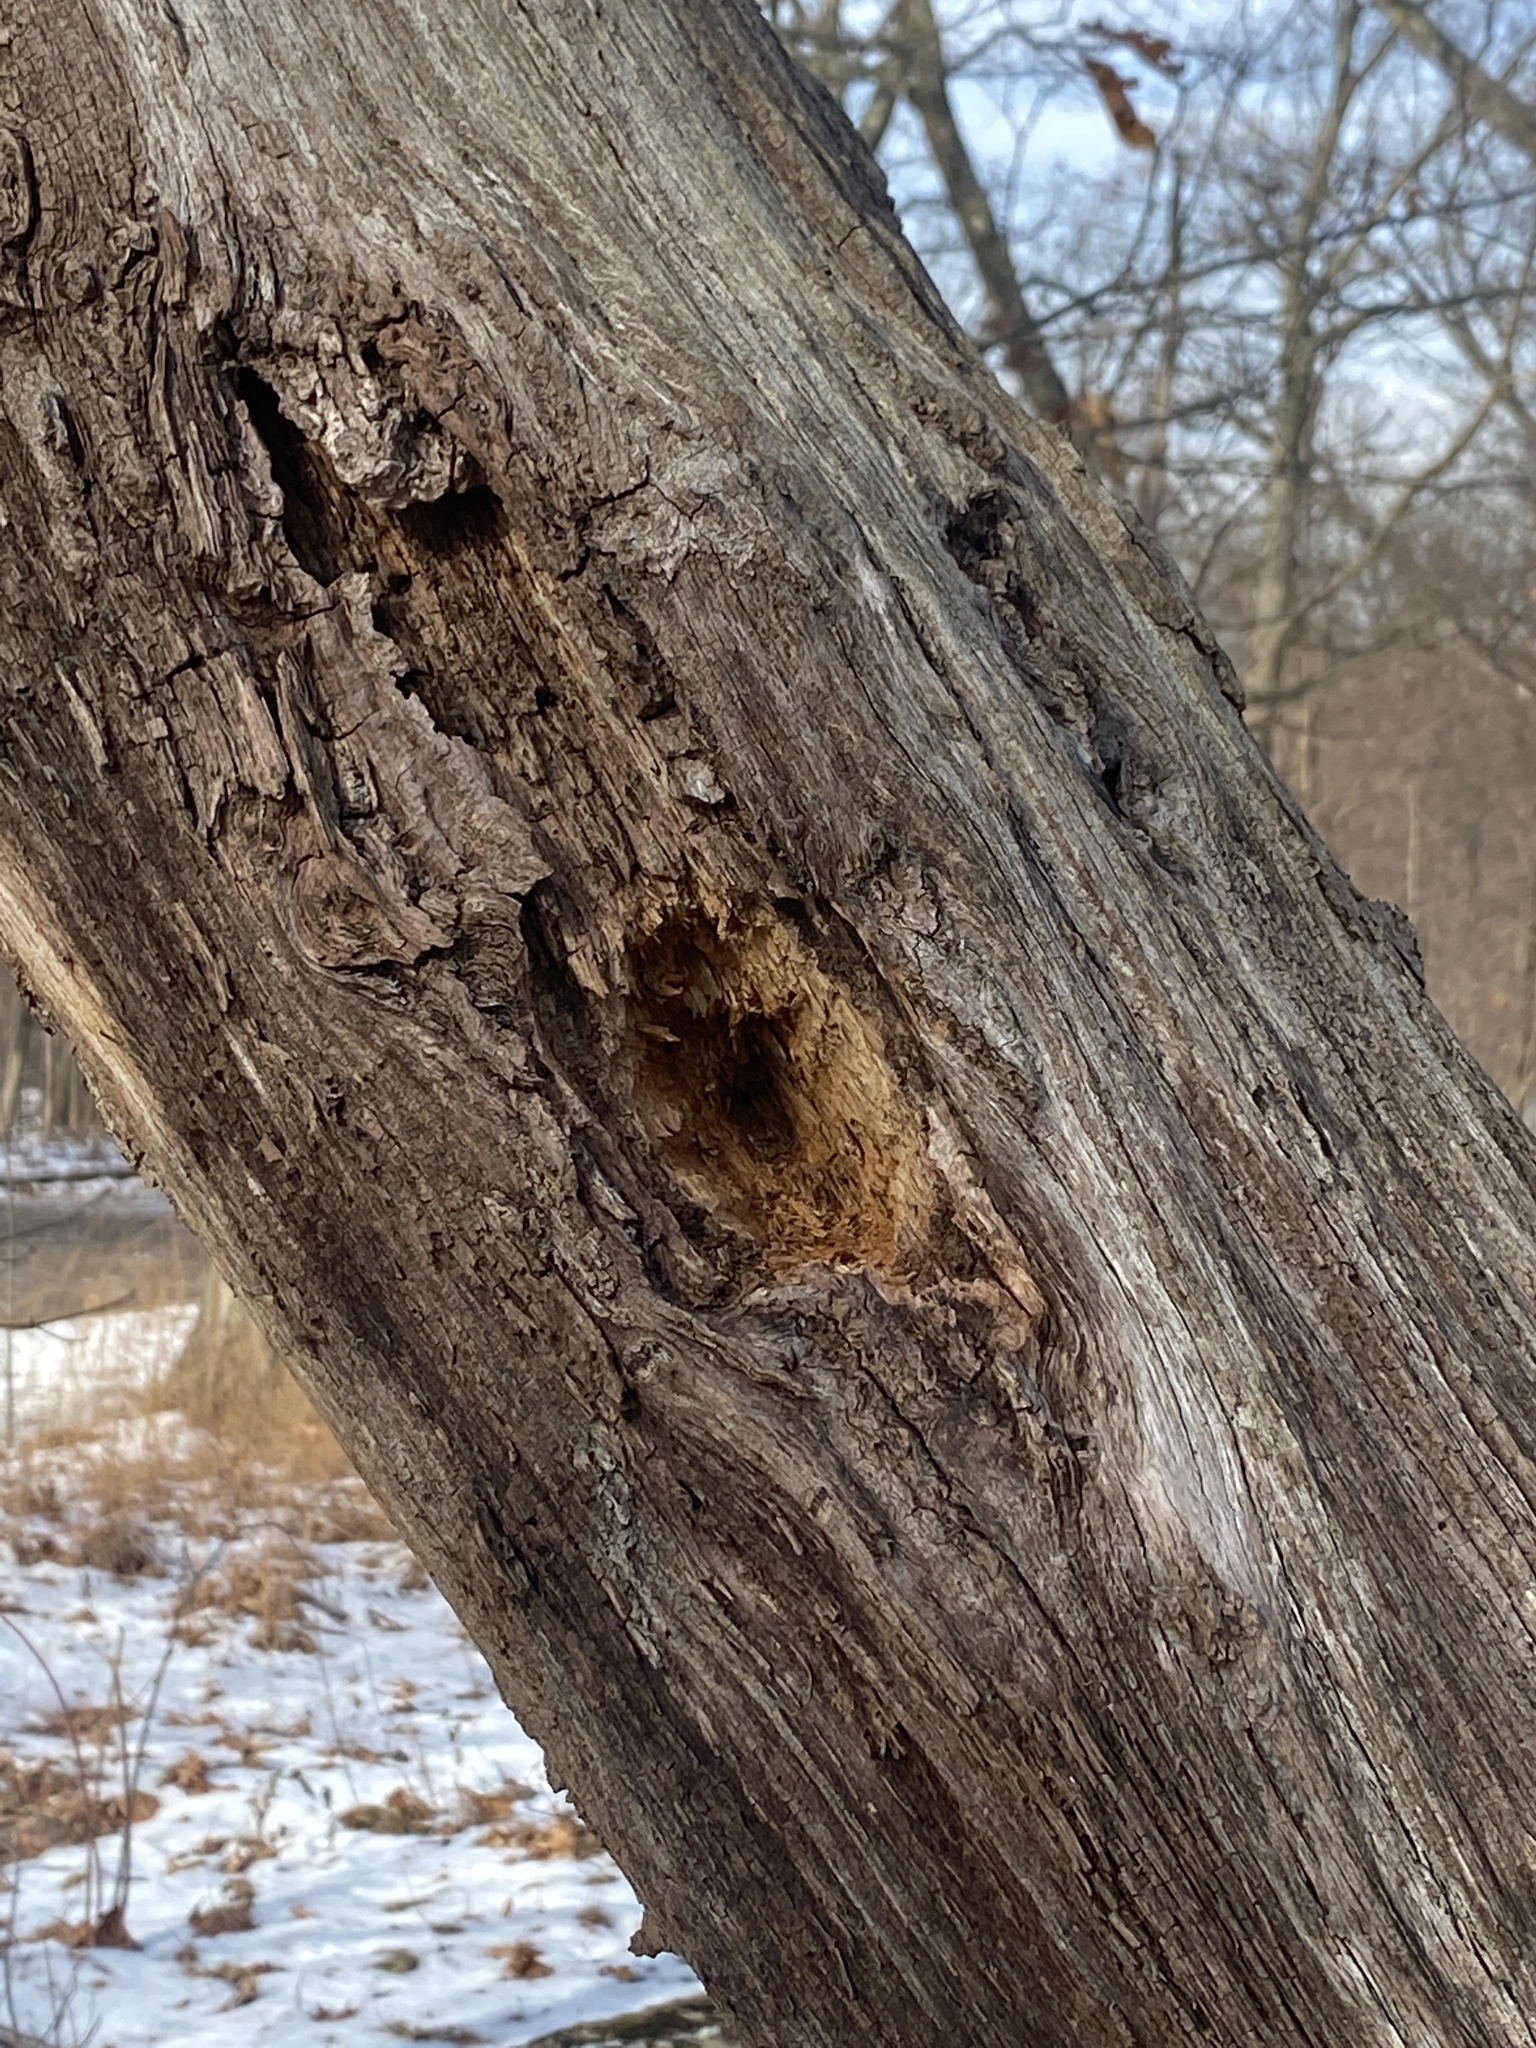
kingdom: Animalia
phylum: Chordata
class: Aves
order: Piciformes
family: Picidae
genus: Dryocopus
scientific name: Dryocopus pileatus
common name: Pileated woodpecker
